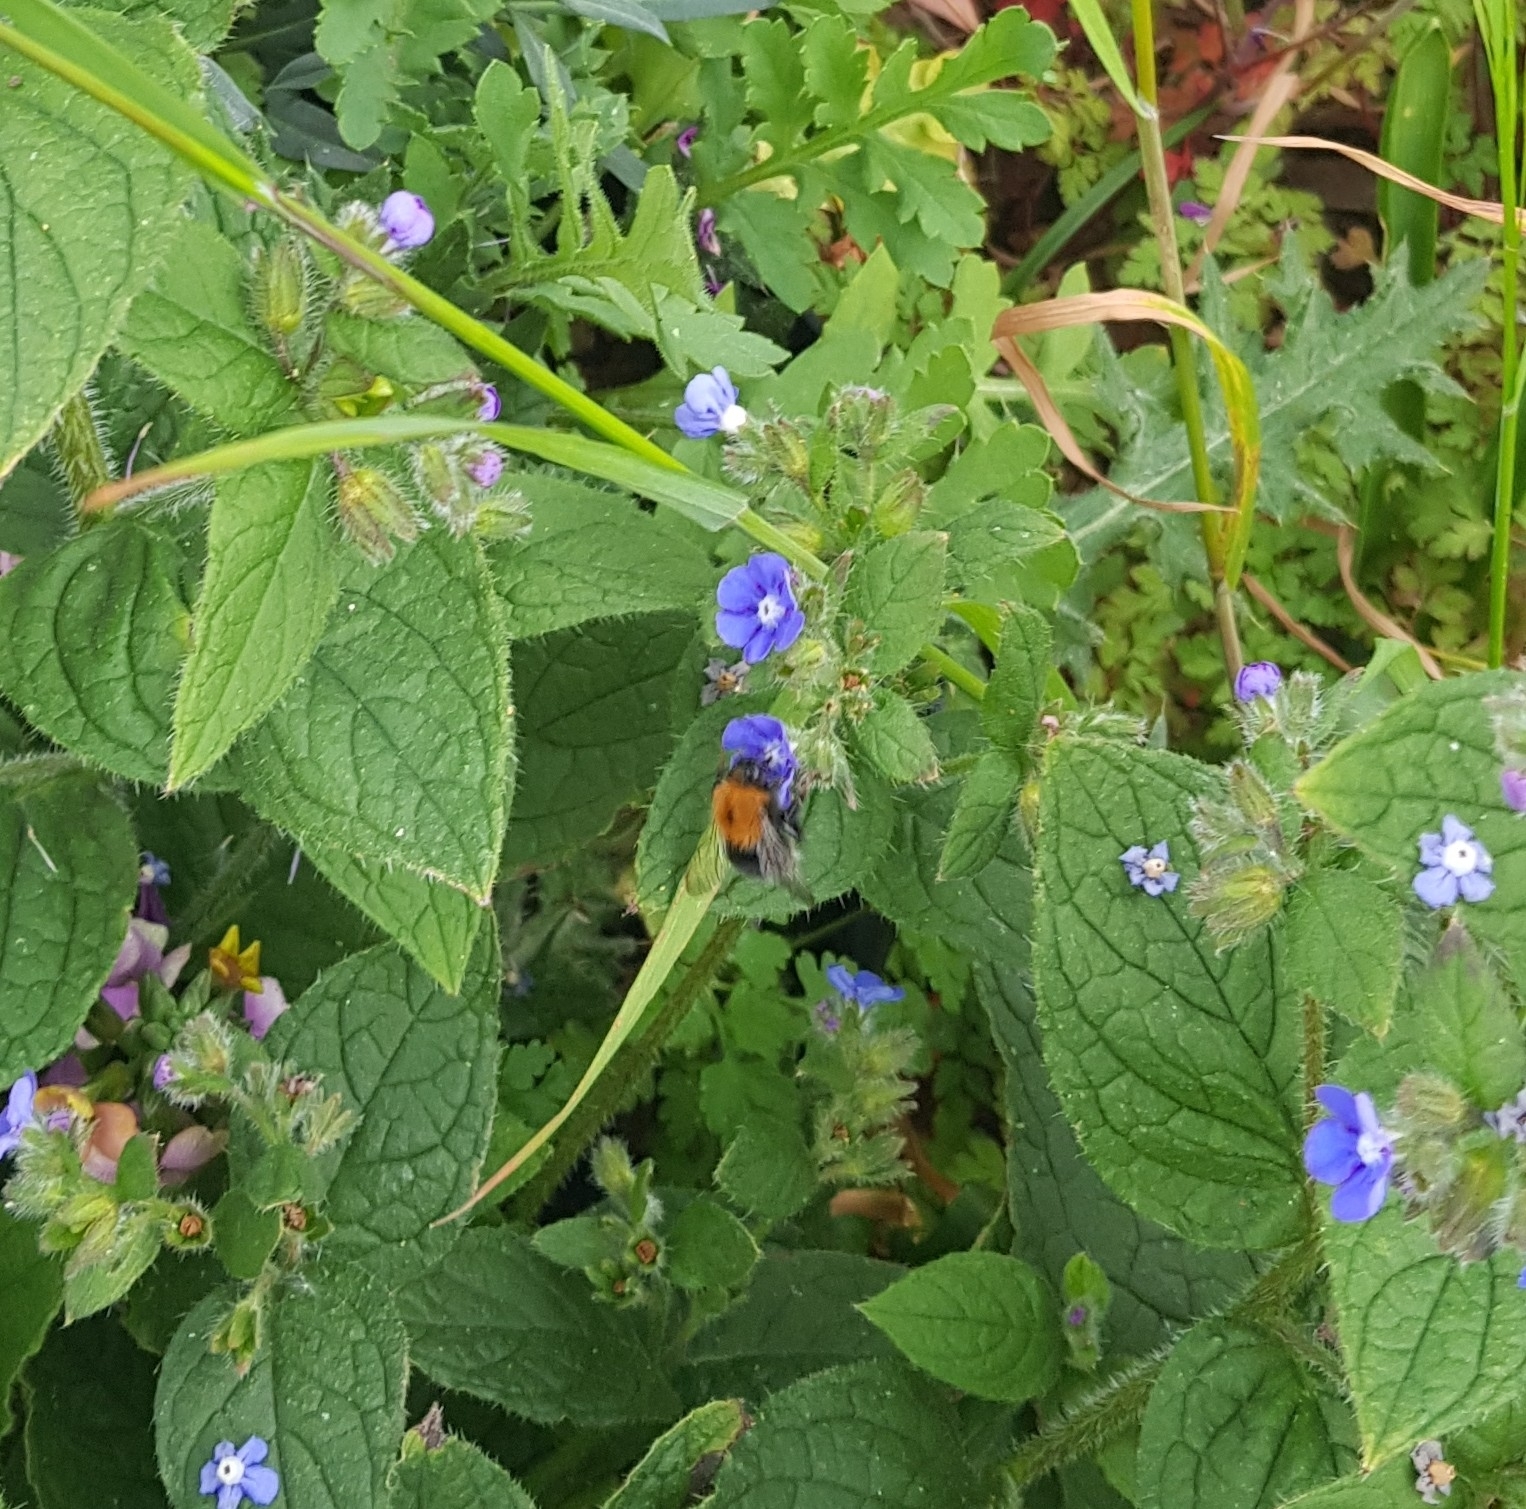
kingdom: Animalia
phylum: Arthropoda
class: Insecta
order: Hymenoptera
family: Apidae
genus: Bombus
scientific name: Bombus hypnorum
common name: New garden bumblebee
